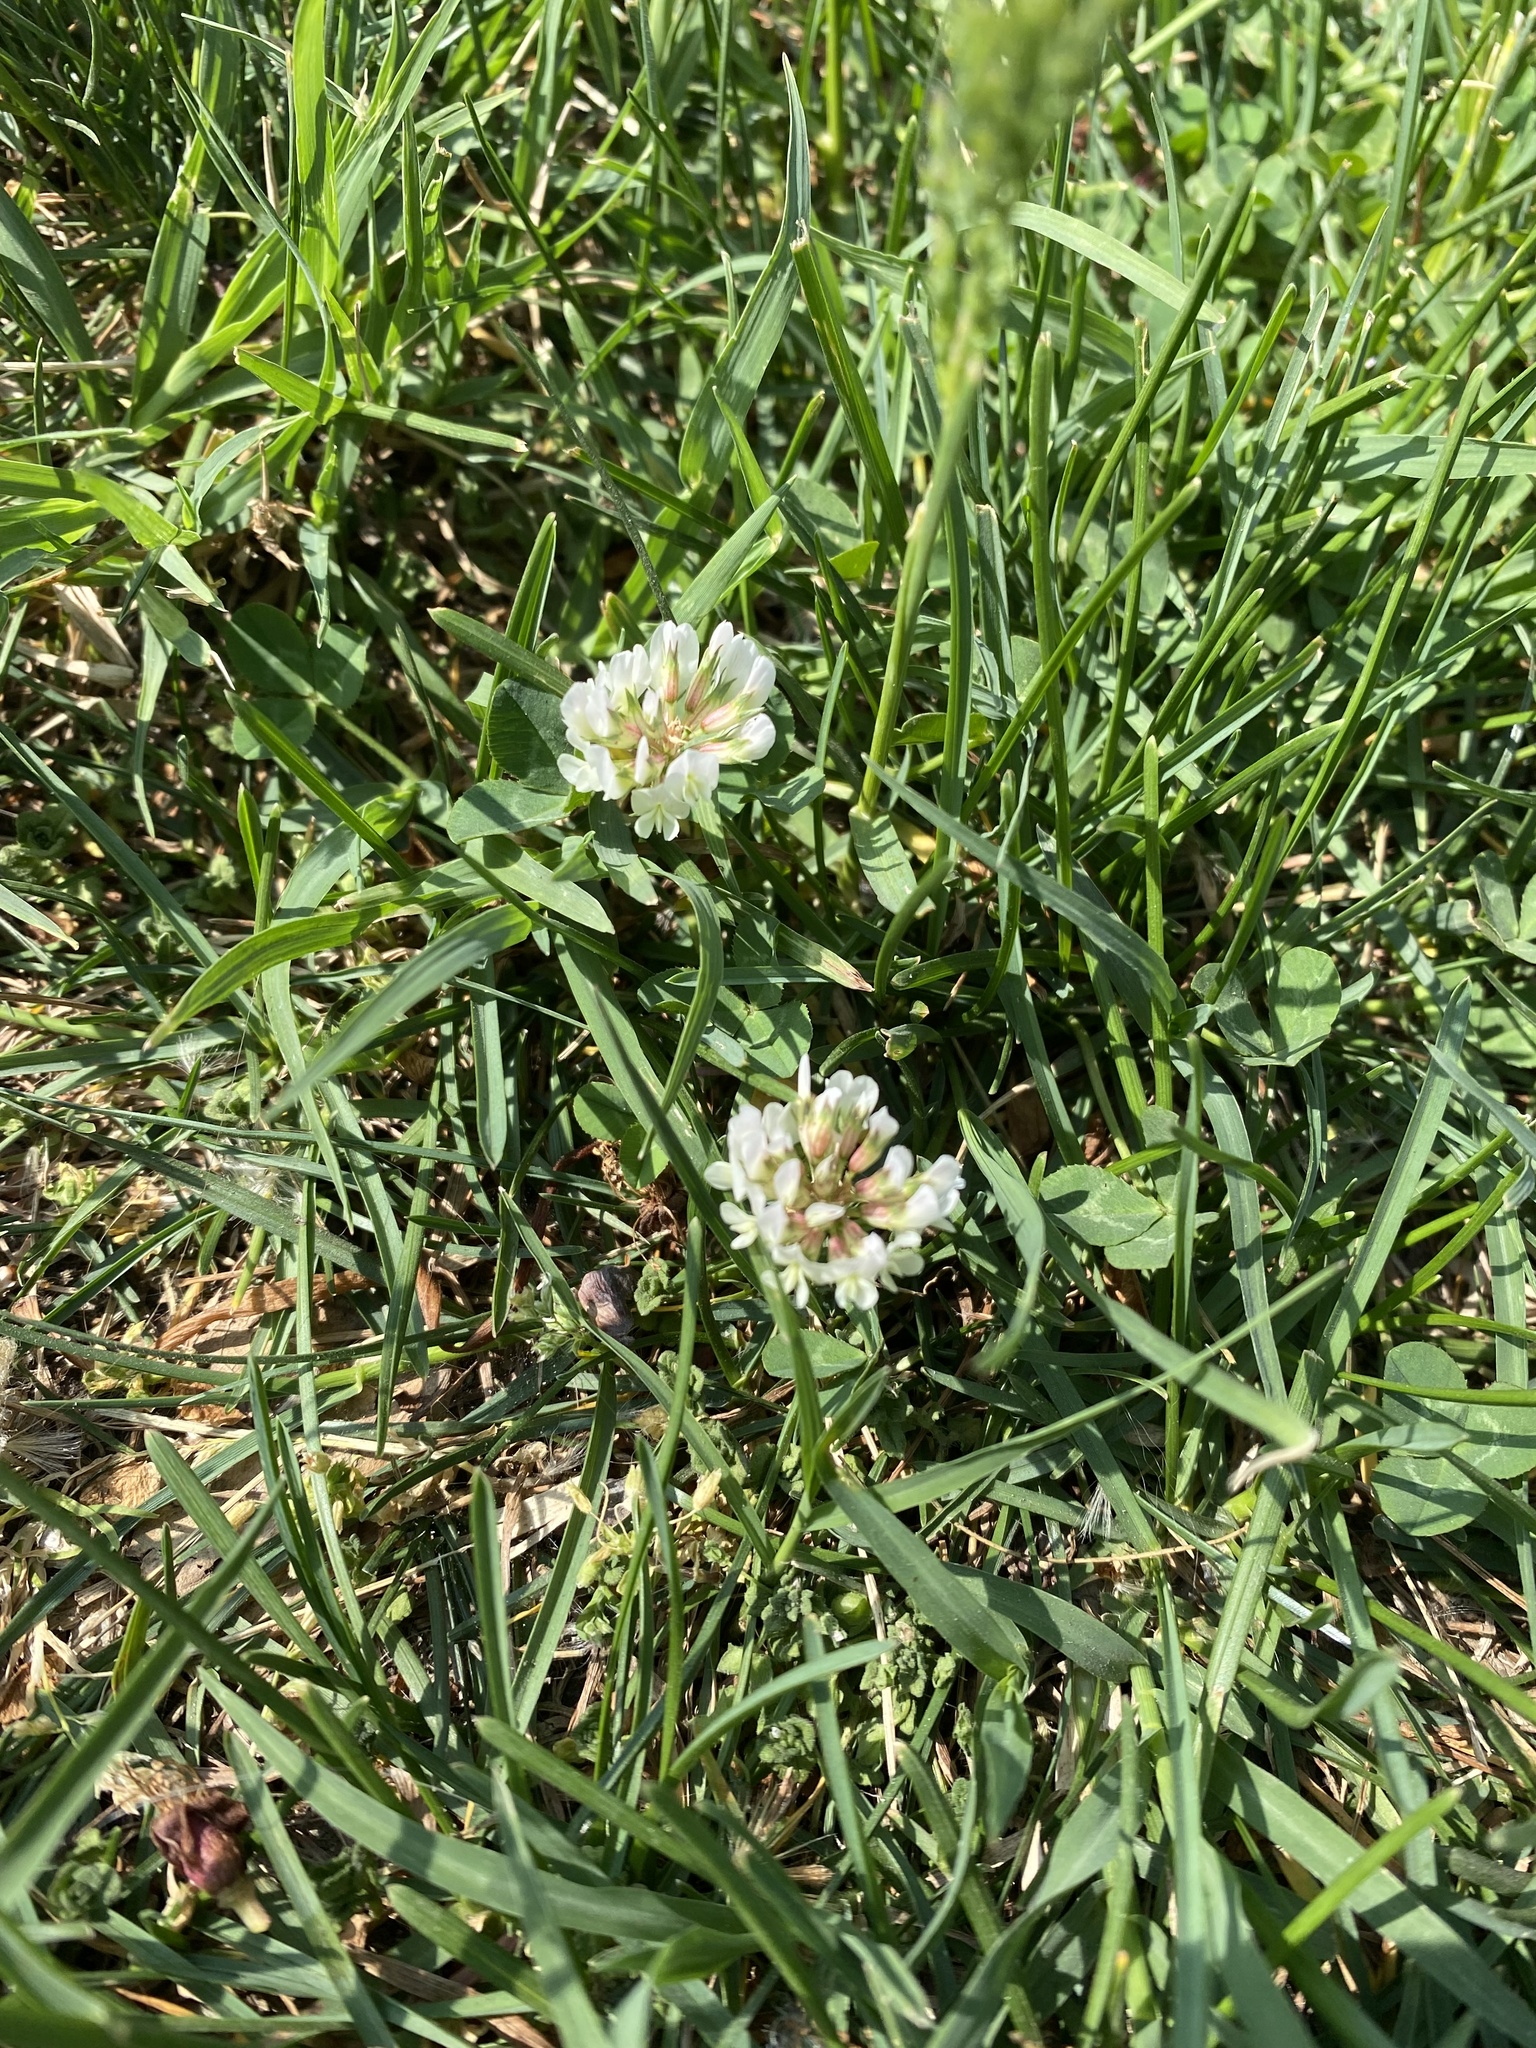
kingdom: Plantae
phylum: Tracheophyta
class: Magnoliopsida
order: Fabales
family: Fabaceae
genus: Trifolium
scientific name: Trifolium repens
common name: White clover
